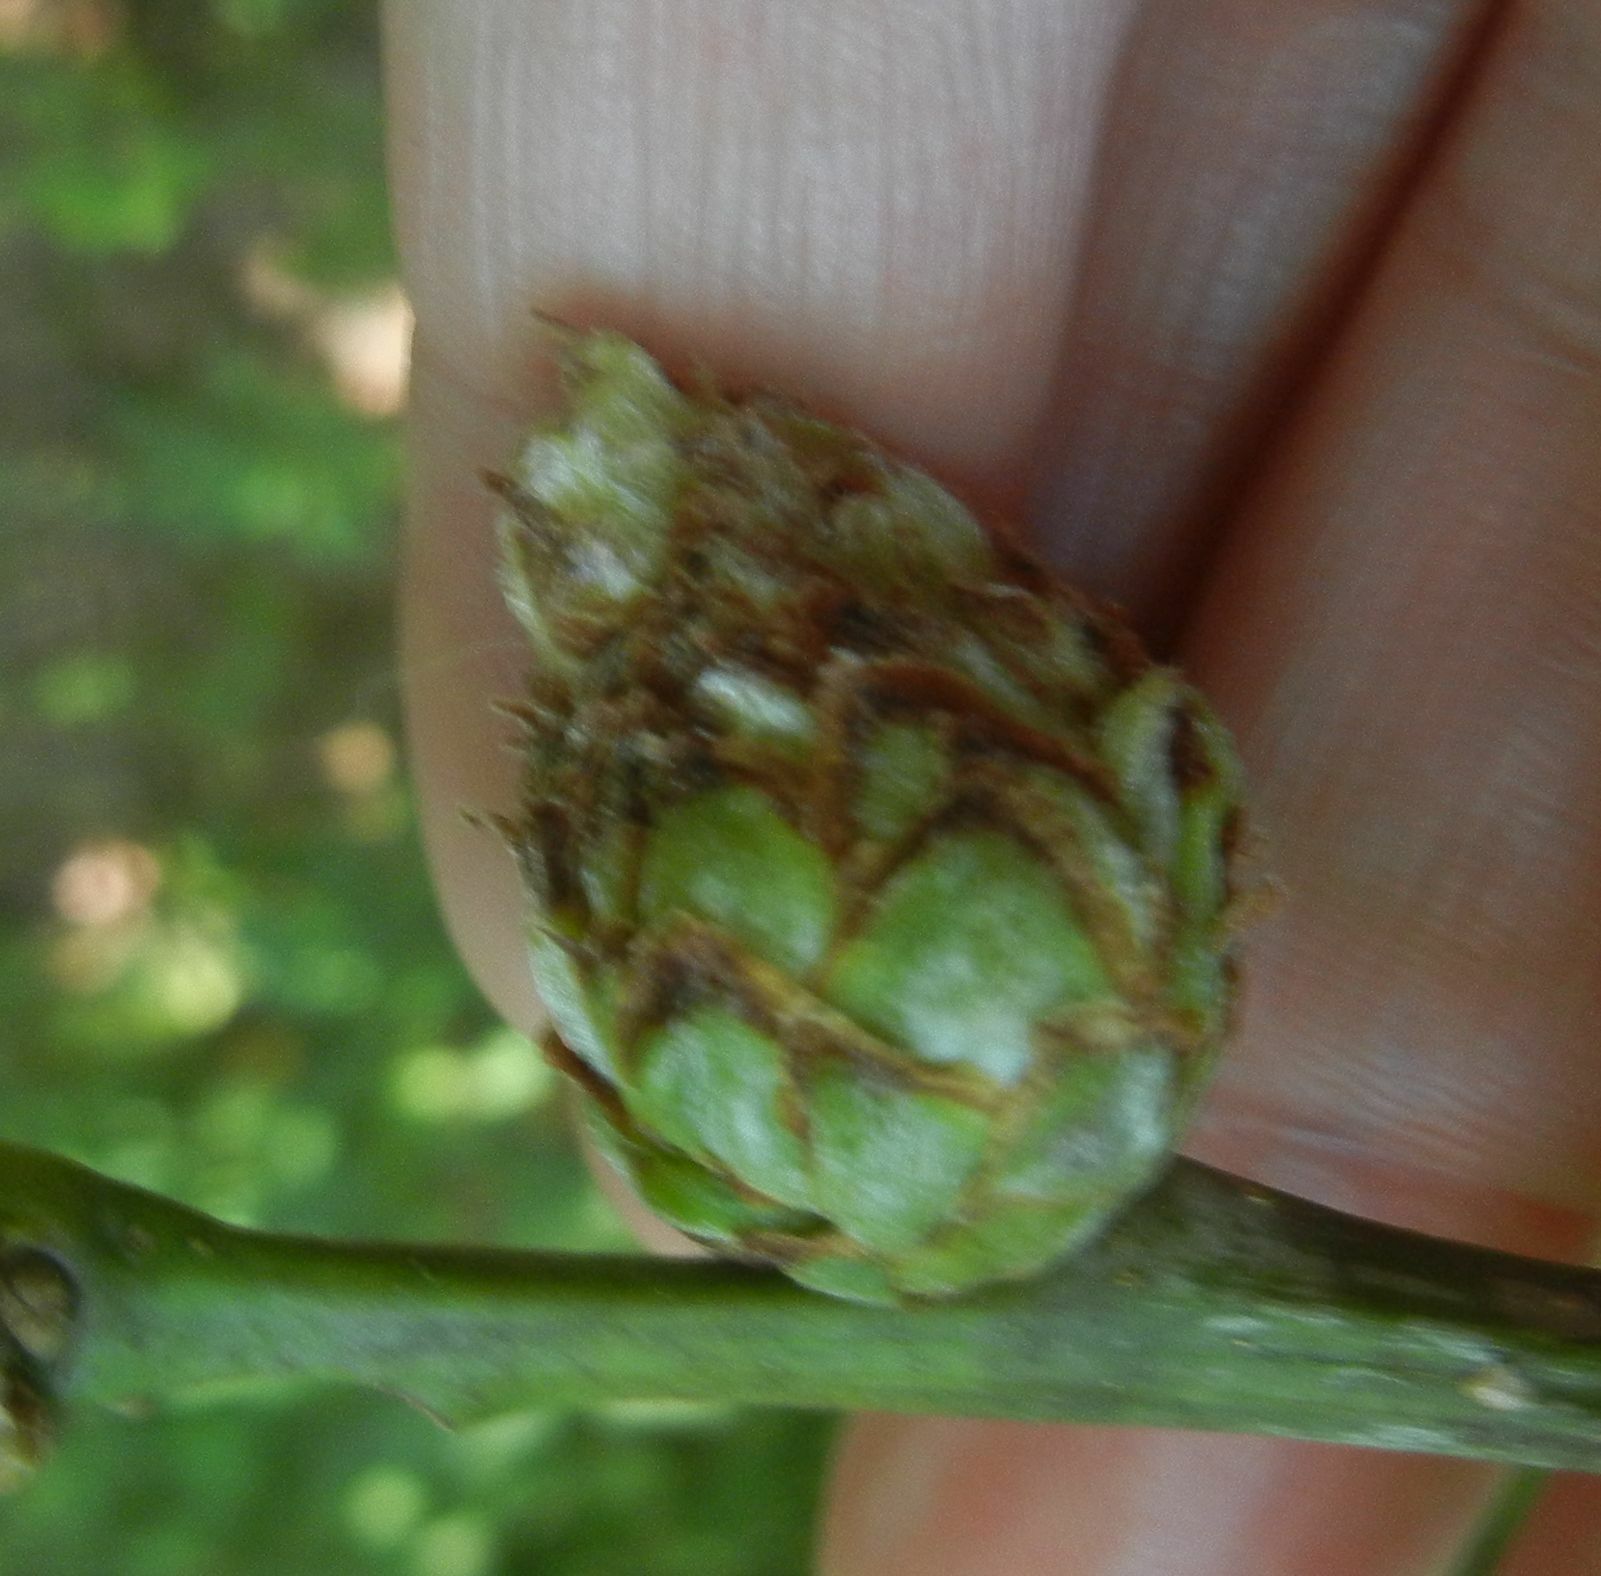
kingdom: Animalia
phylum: Arthropoda
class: Insecta
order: Hymenoptera
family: Cynipidae
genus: Andricus
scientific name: Andricus foecundatrix
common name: Artichoke gall
